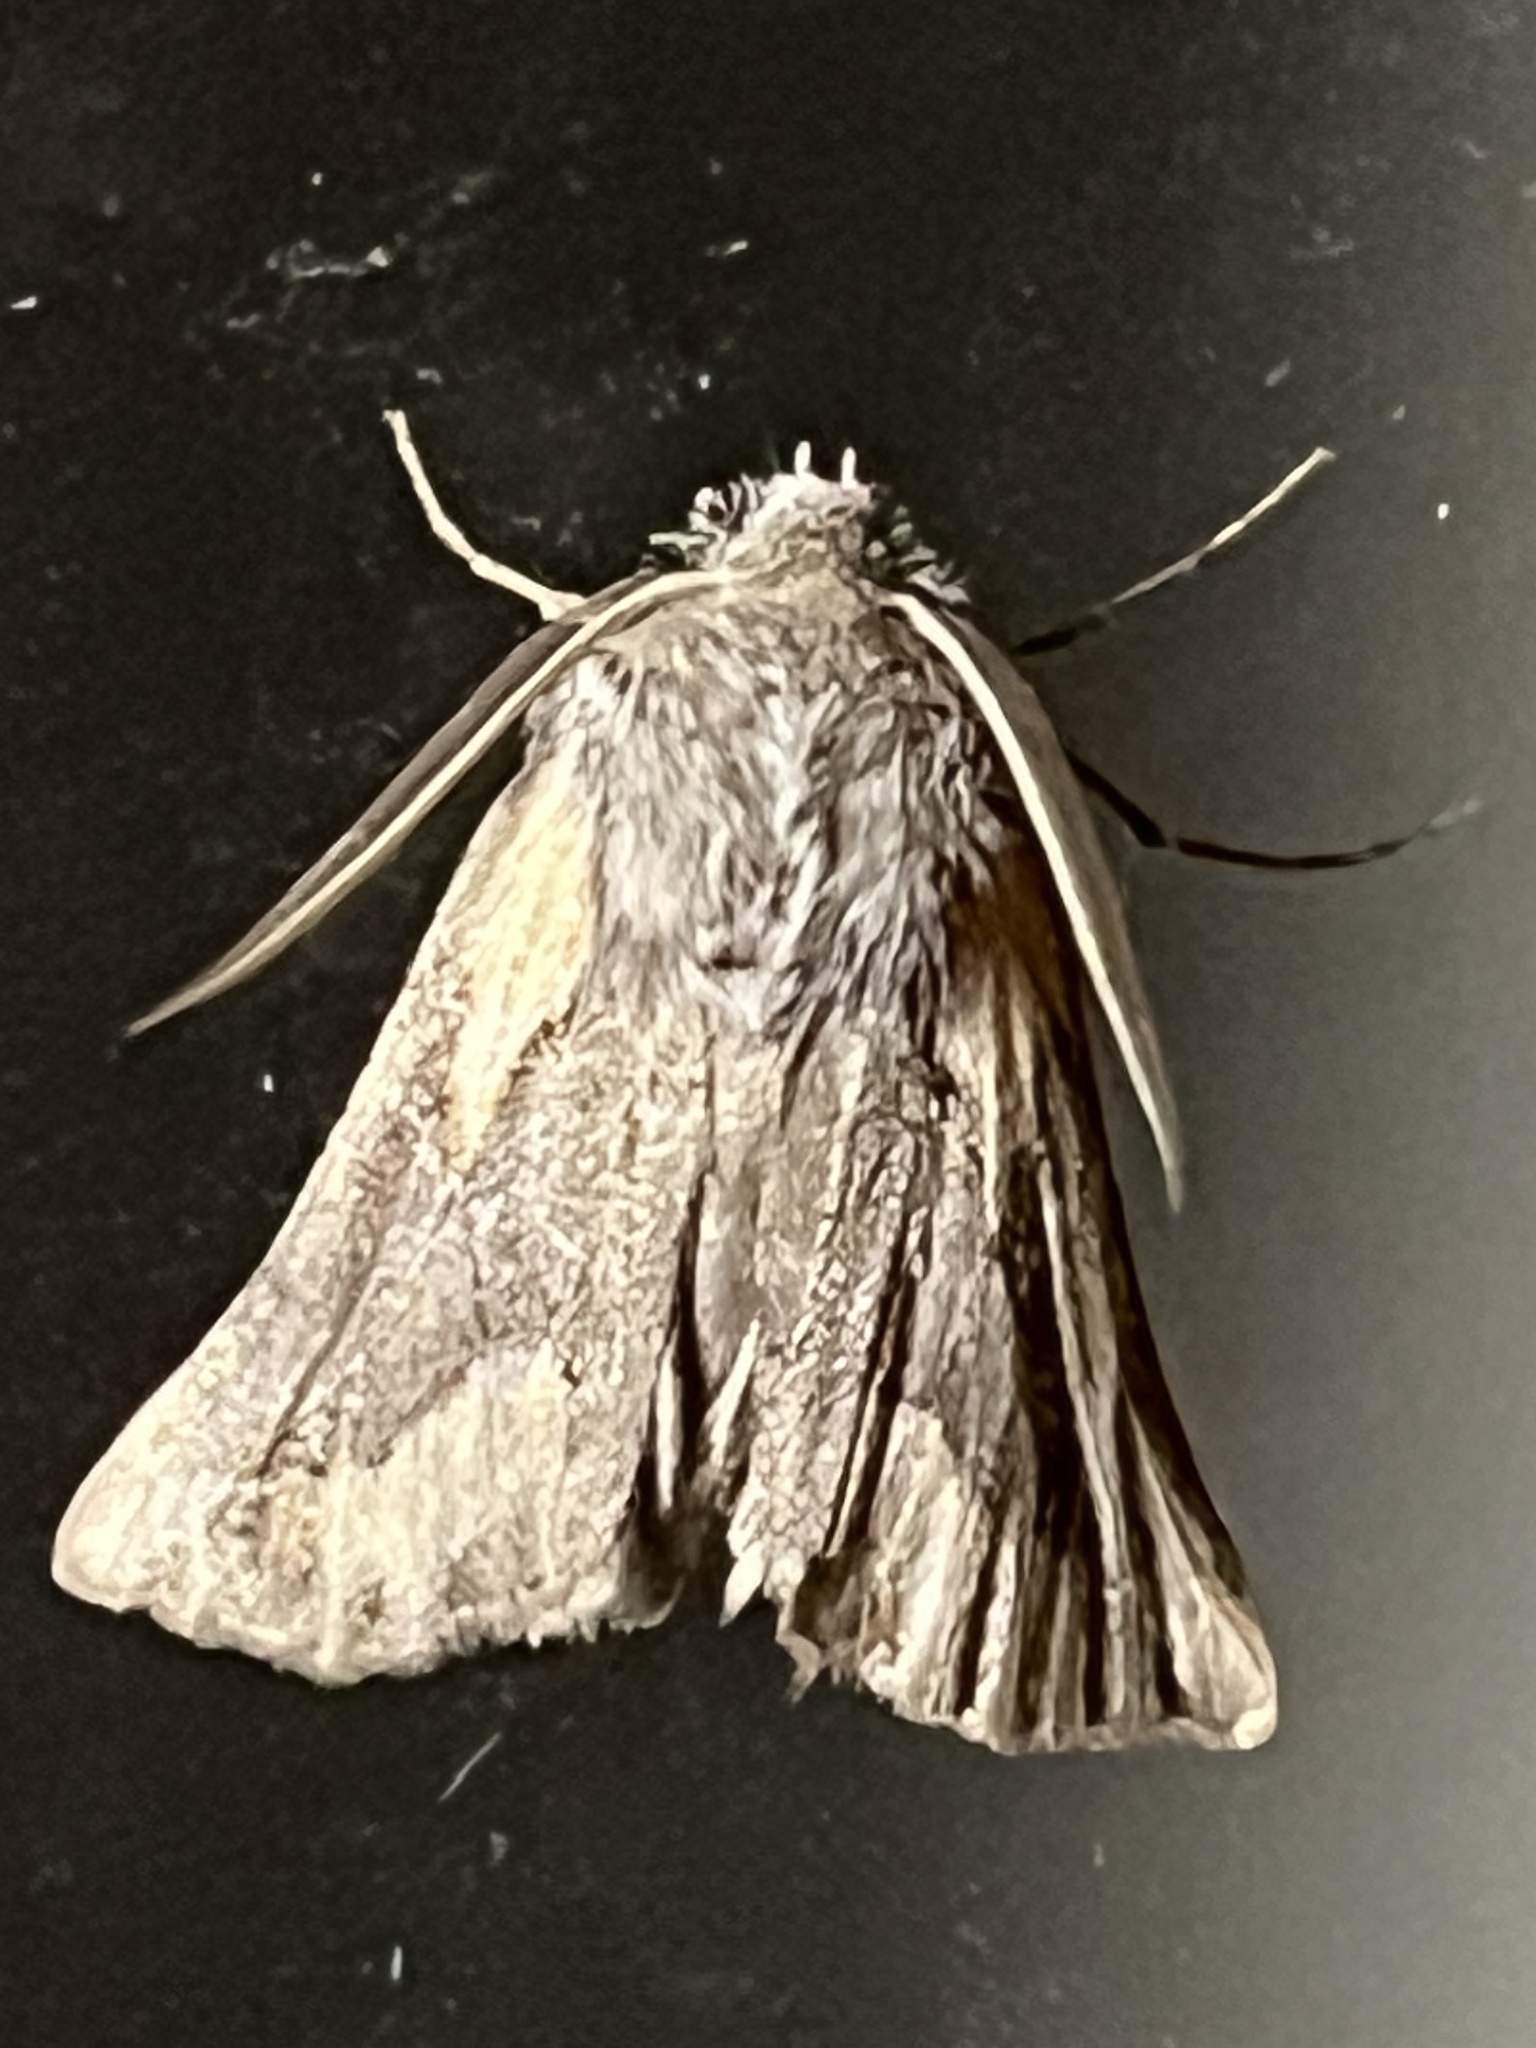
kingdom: Animalia
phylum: Arthropoda
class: Insecta
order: Lepidoptera
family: Geometridae
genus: Axiodes
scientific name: Axiodes dochmoleuca
